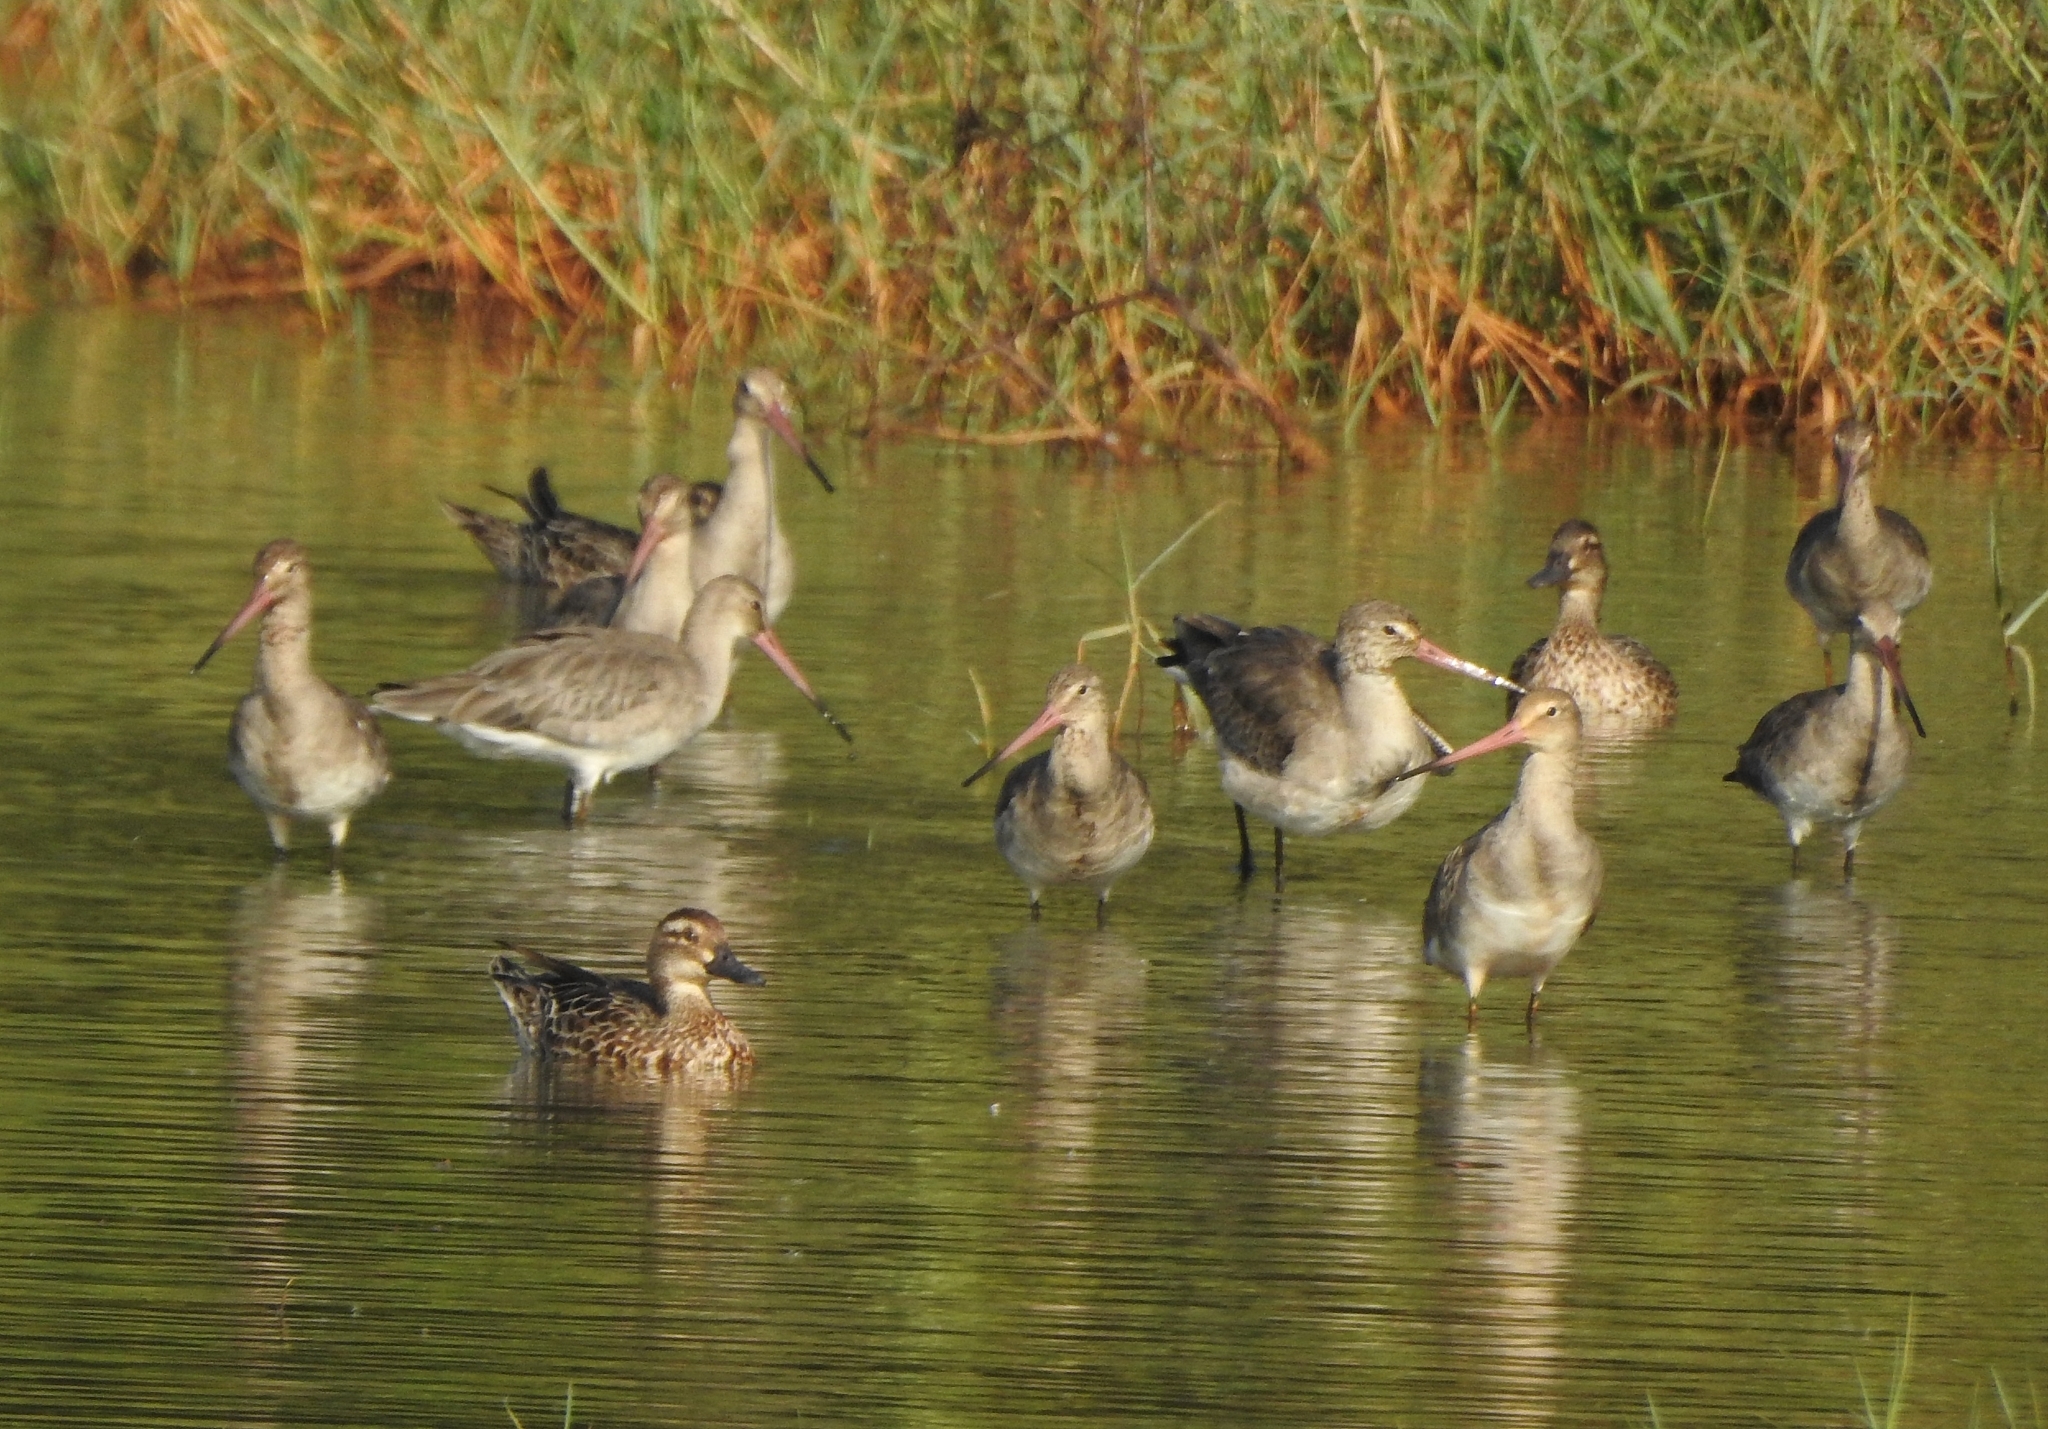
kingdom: Animalia
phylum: Chordata
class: Aves
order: Charadriiformes
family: Scolopacidae
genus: Limosa
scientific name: Limosa limosa
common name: Black-tailed godwit
